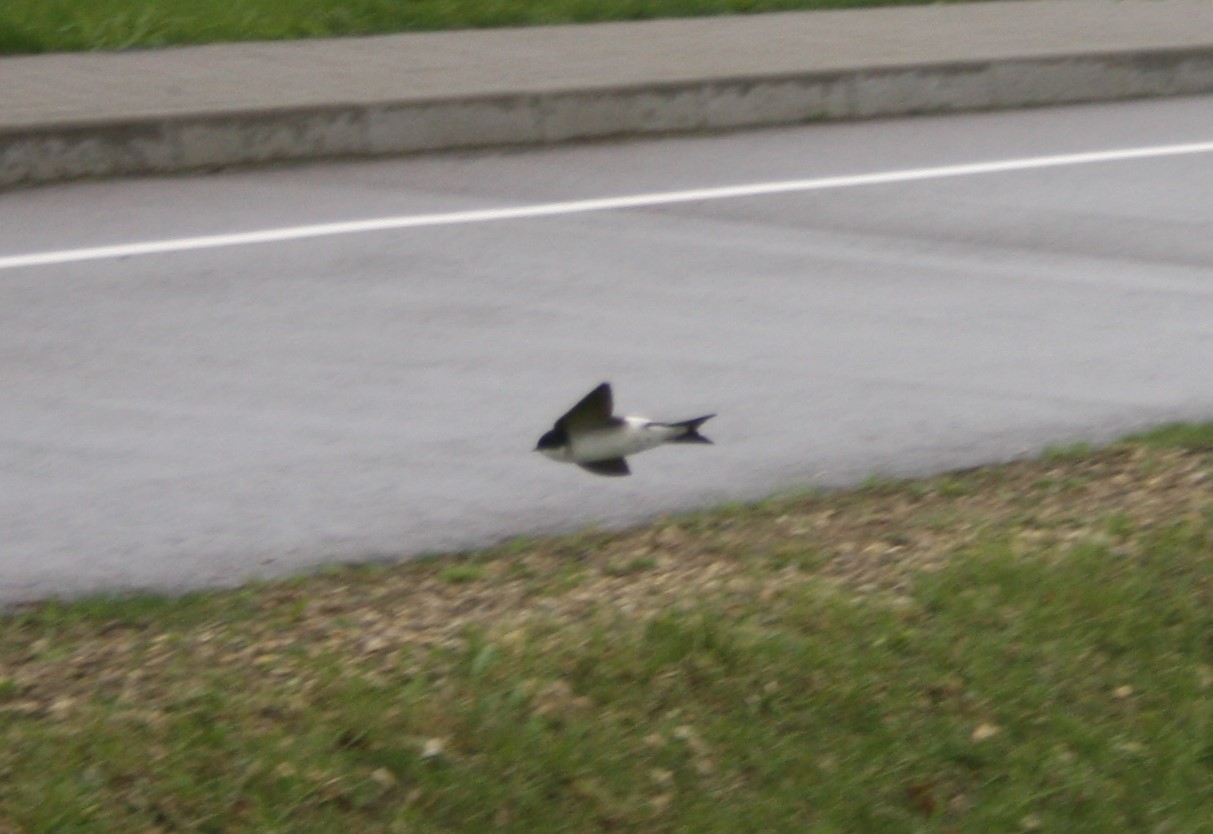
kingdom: Animalia
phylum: Chordata
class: Aves
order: Passeriformes
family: Hirundinidae
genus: Delichon
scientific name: Delichon urbicum
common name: Common house martin
